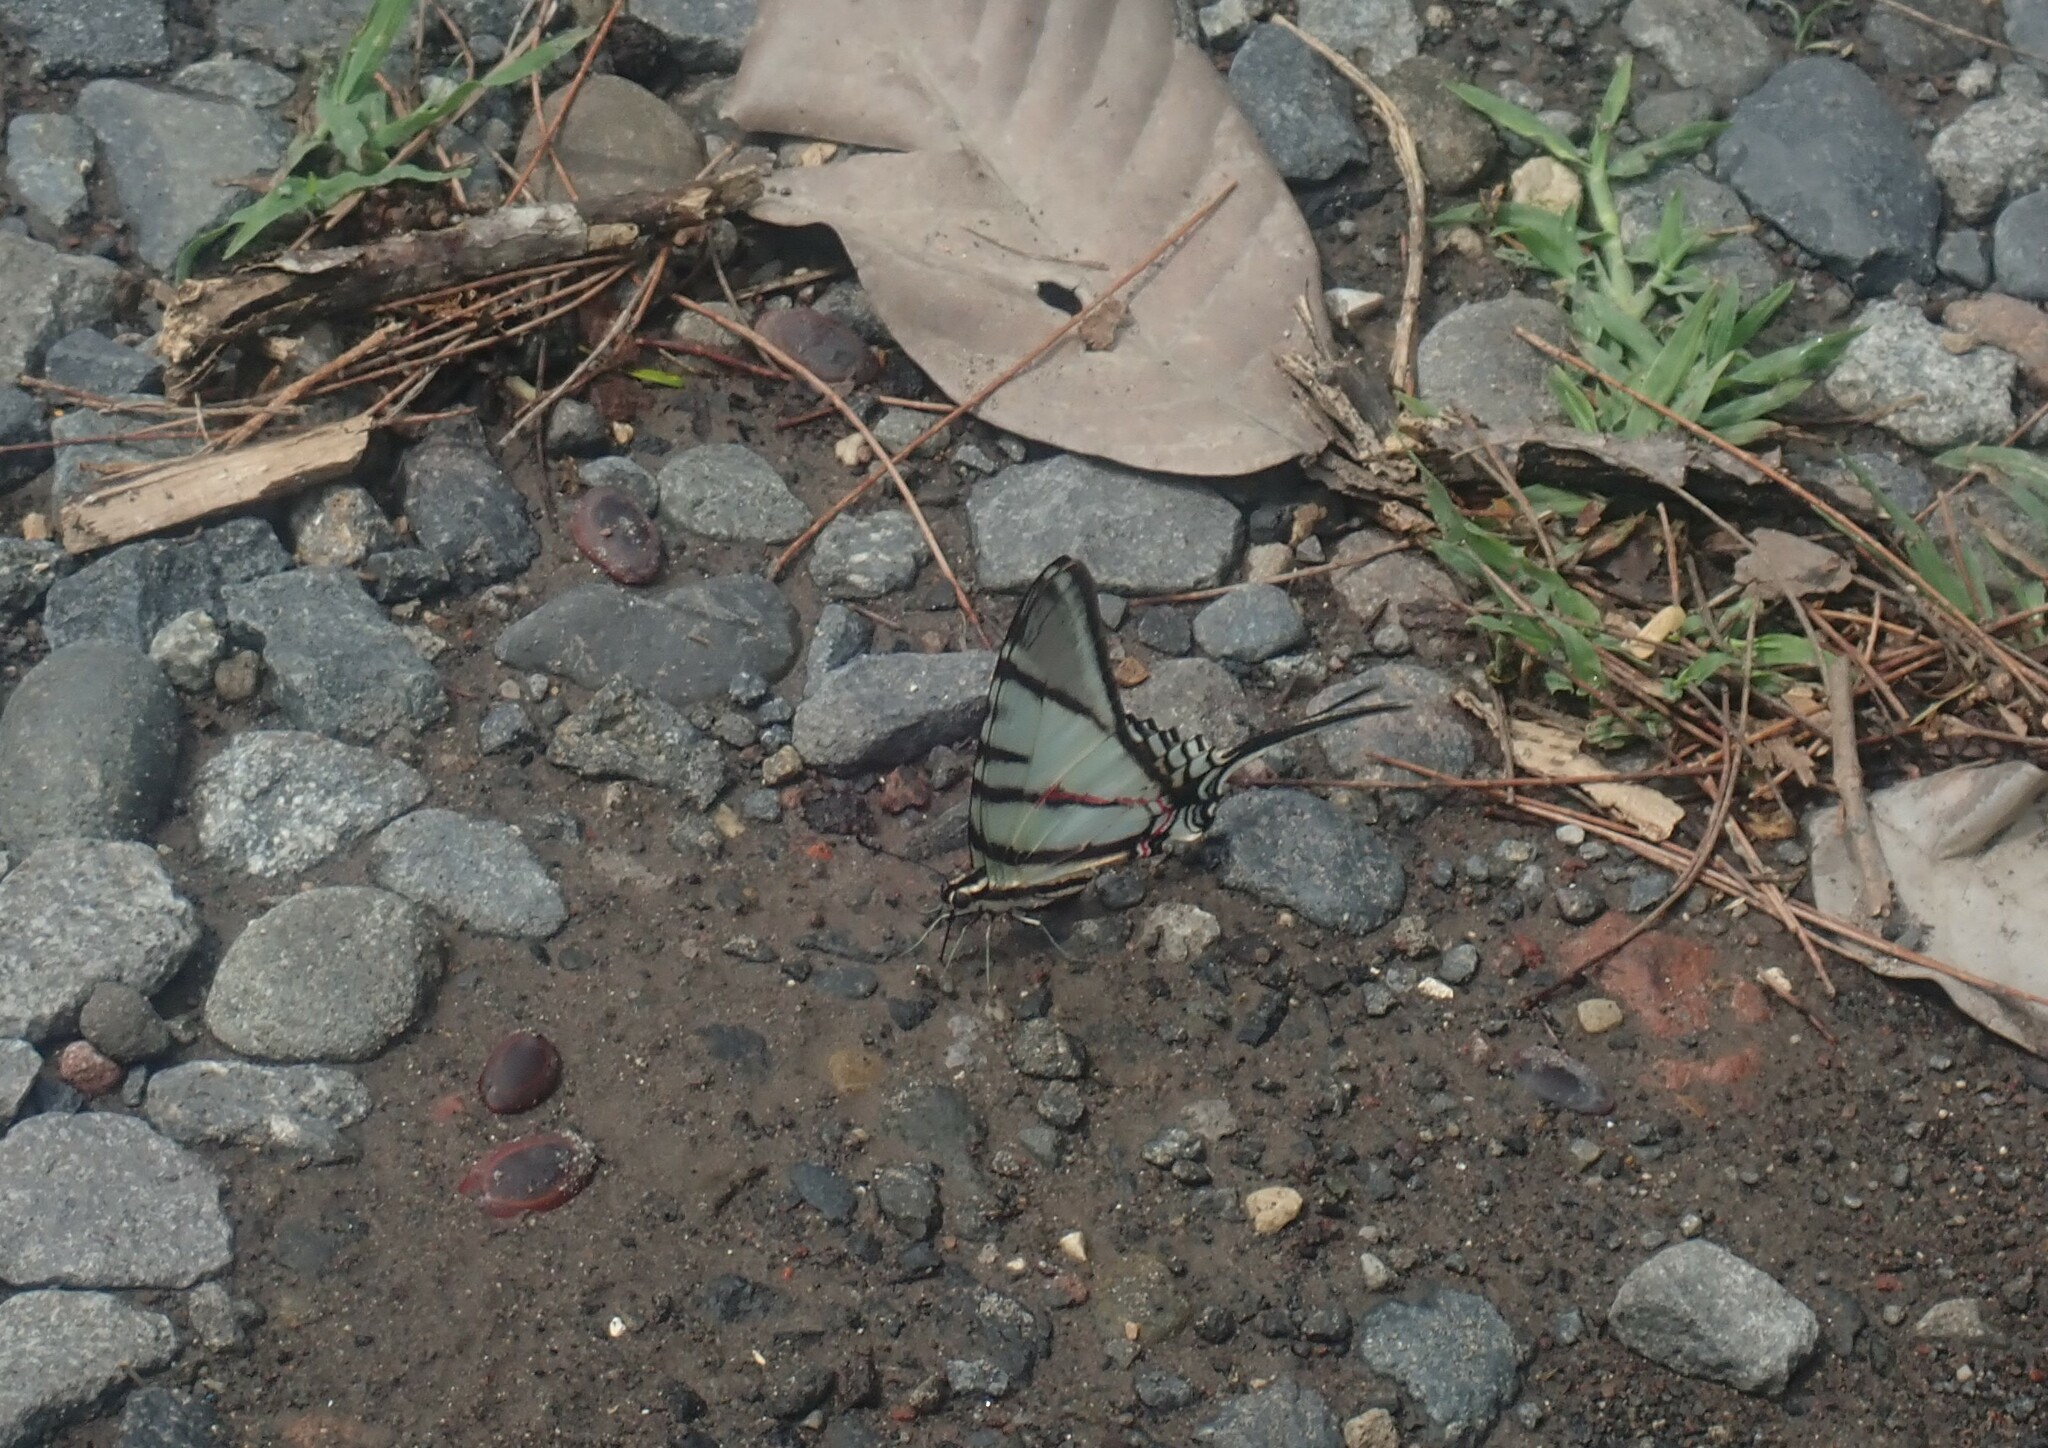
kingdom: Animalia
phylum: Arthropoda
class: Insecta
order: Lepidoptera
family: Papilionidae
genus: Protographium
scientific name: Protographium epidaus
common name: Mexican kite swallowtail
